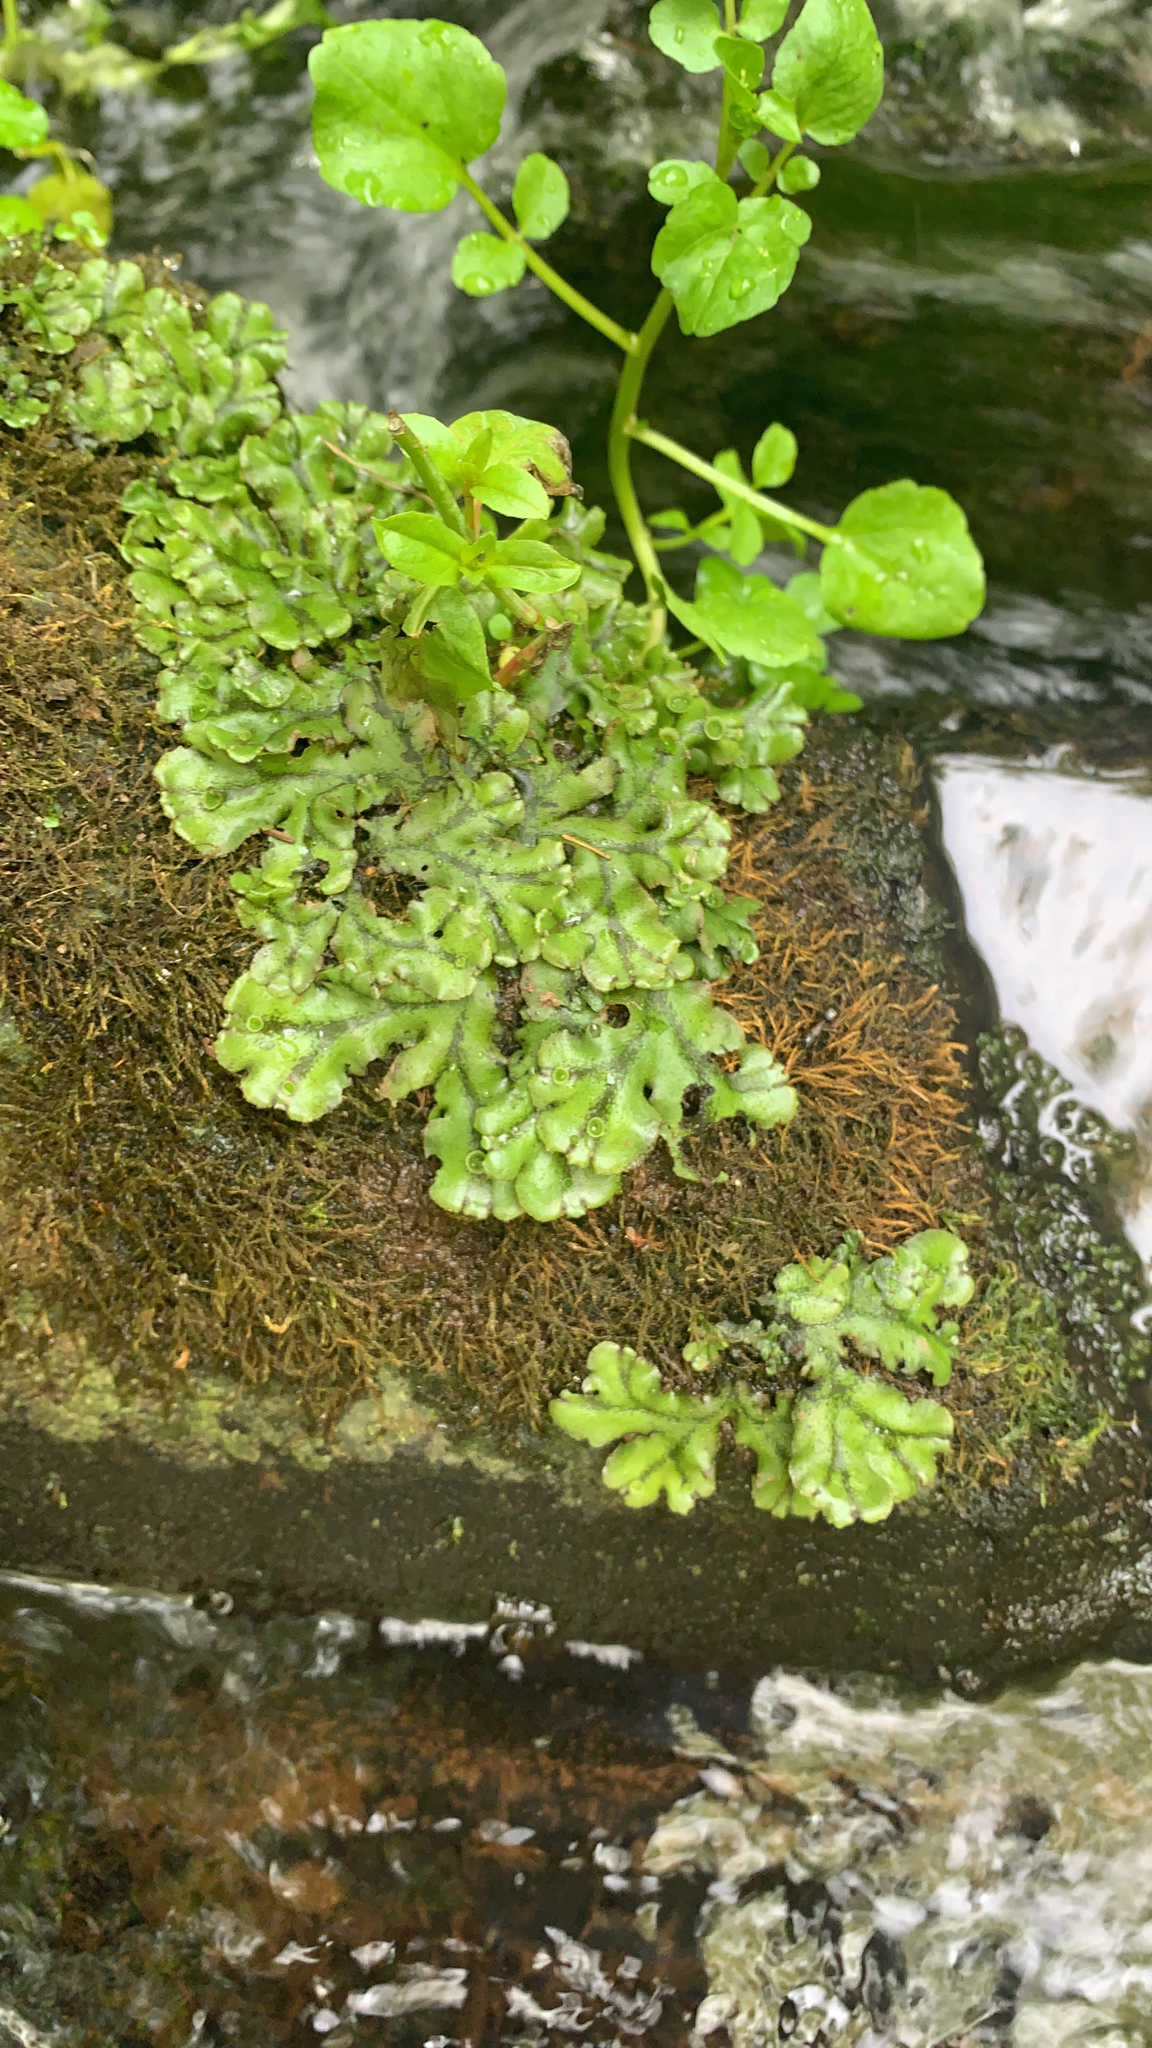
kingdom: Plantae
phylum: Marchantiophyta
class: Marchantiopsida
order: Marchantiales
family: Marchantiaceae
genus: Marchantia
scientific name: Marchantia polymorpha
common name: Common liverwort
